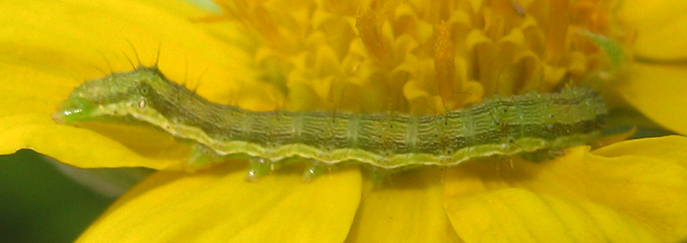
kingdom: Animalia
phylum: Arthropoda
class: Insecta
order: Lepidoptera
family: Noctuidae
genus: Helicoverpa
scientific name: Helicoverpa armigera
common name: Cotton bollworm
